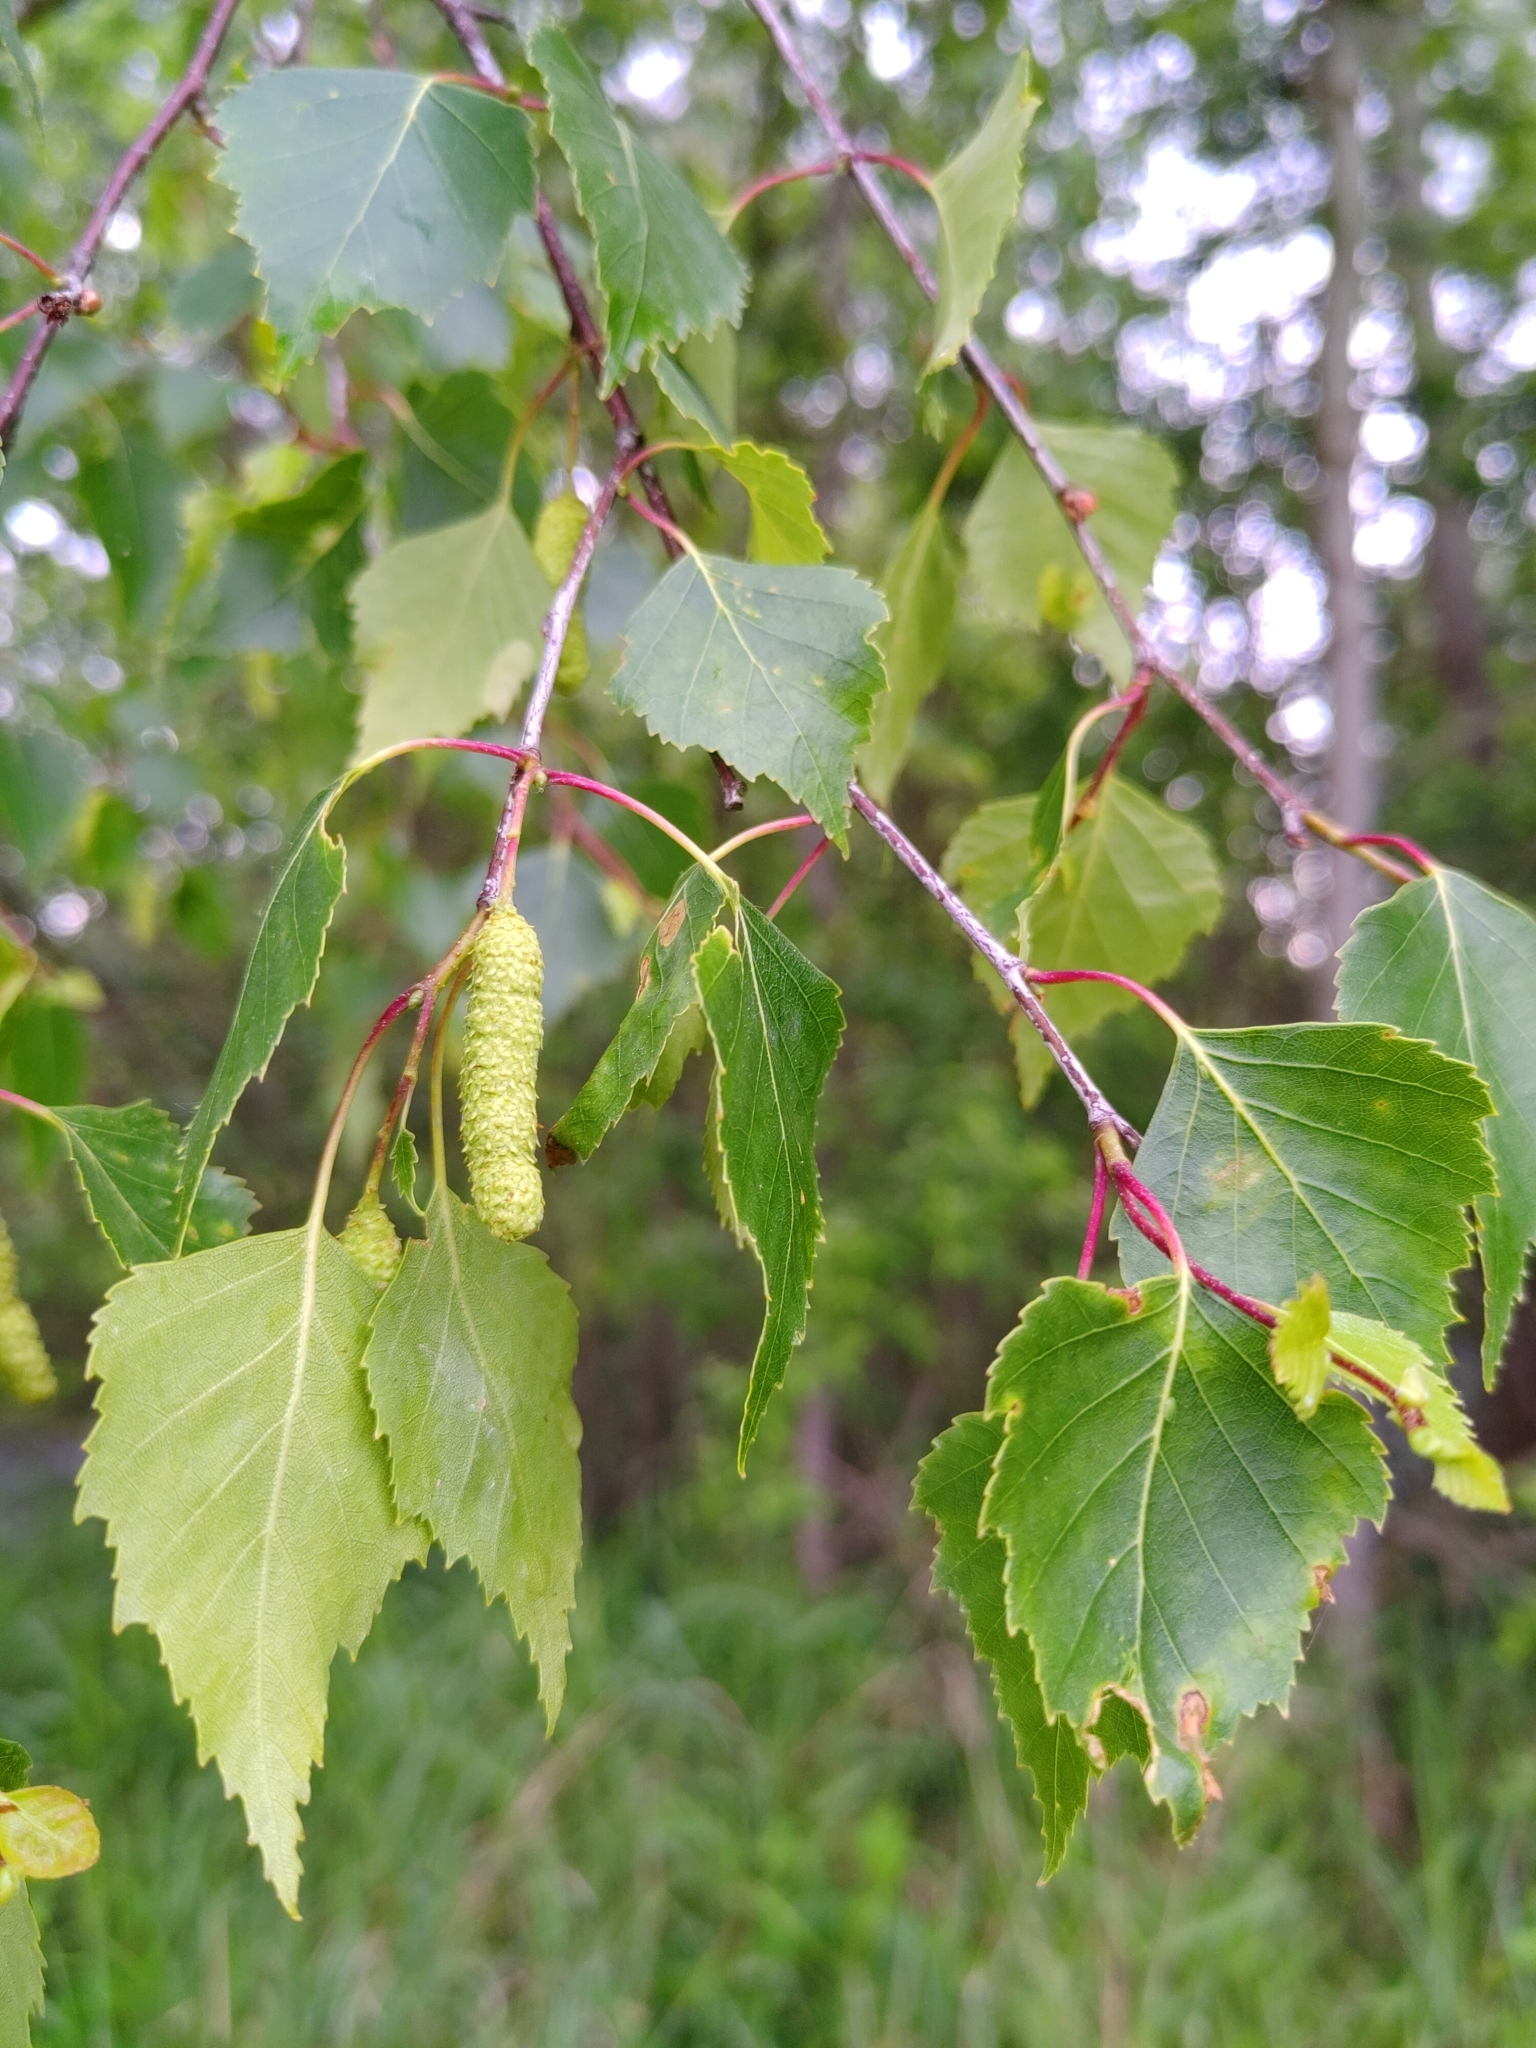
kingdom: Plantae
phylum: Tracheophyta
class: Magnoliopsida
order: Fagales
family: Betulaceae
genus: Betula
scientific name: Betula pendula
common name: Silver birch
